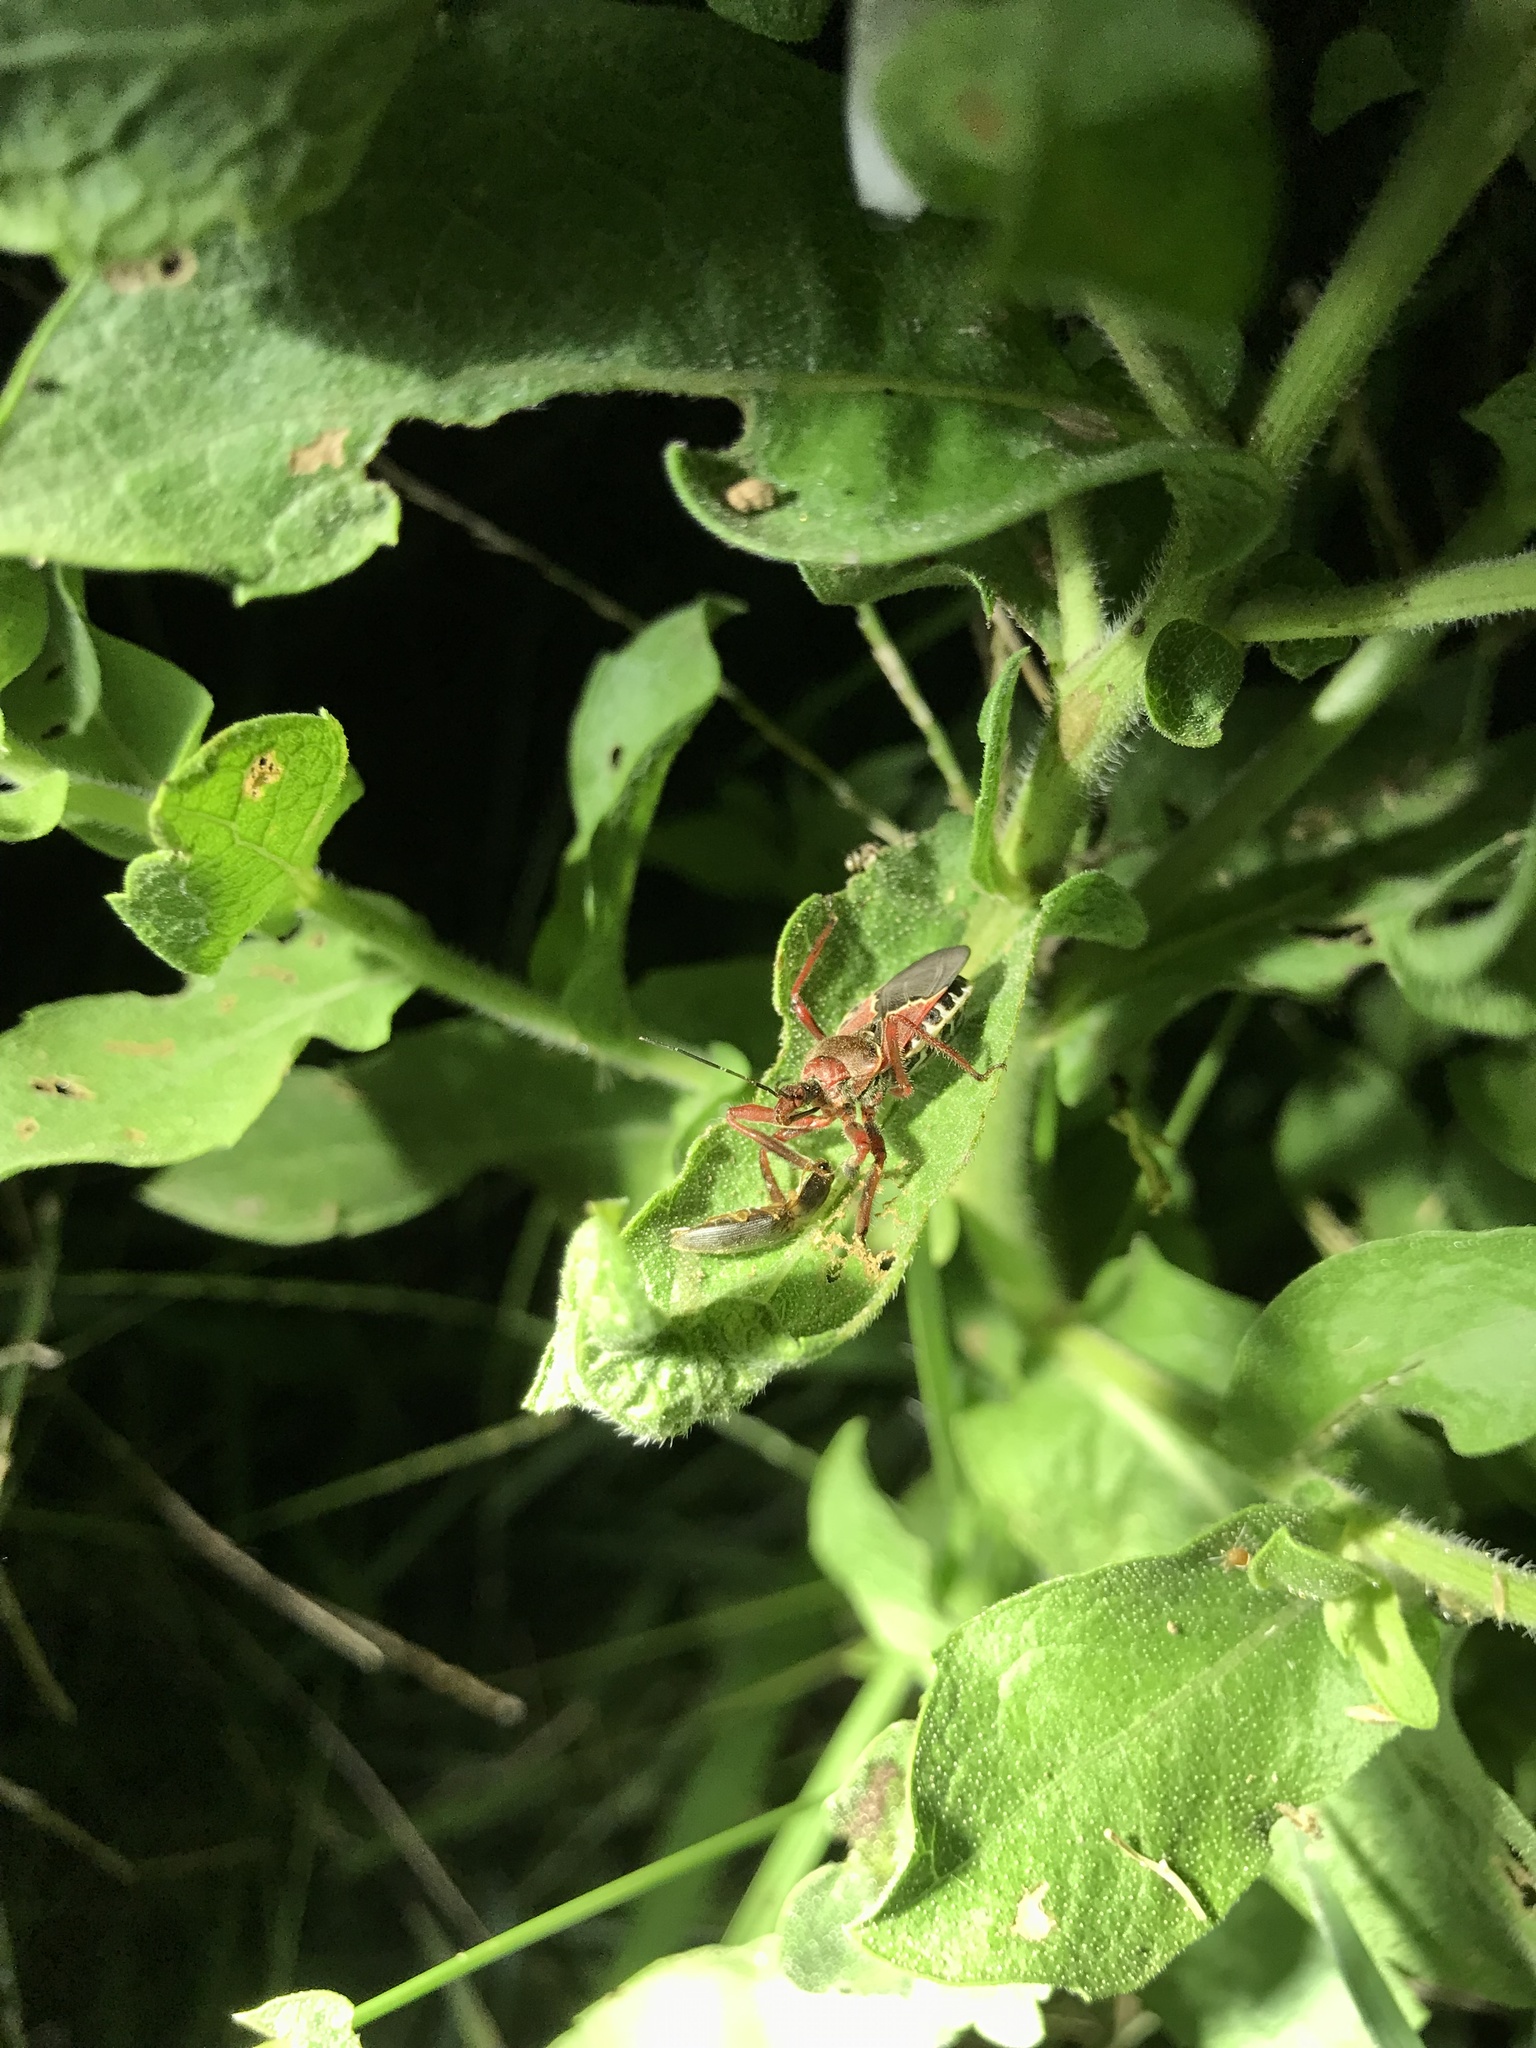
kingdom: Animalia
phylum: Arthropoda
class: Insecta
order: Hemiptera
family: Reduviidae
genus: Apiomerus
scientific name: Apiomerus spissipes
